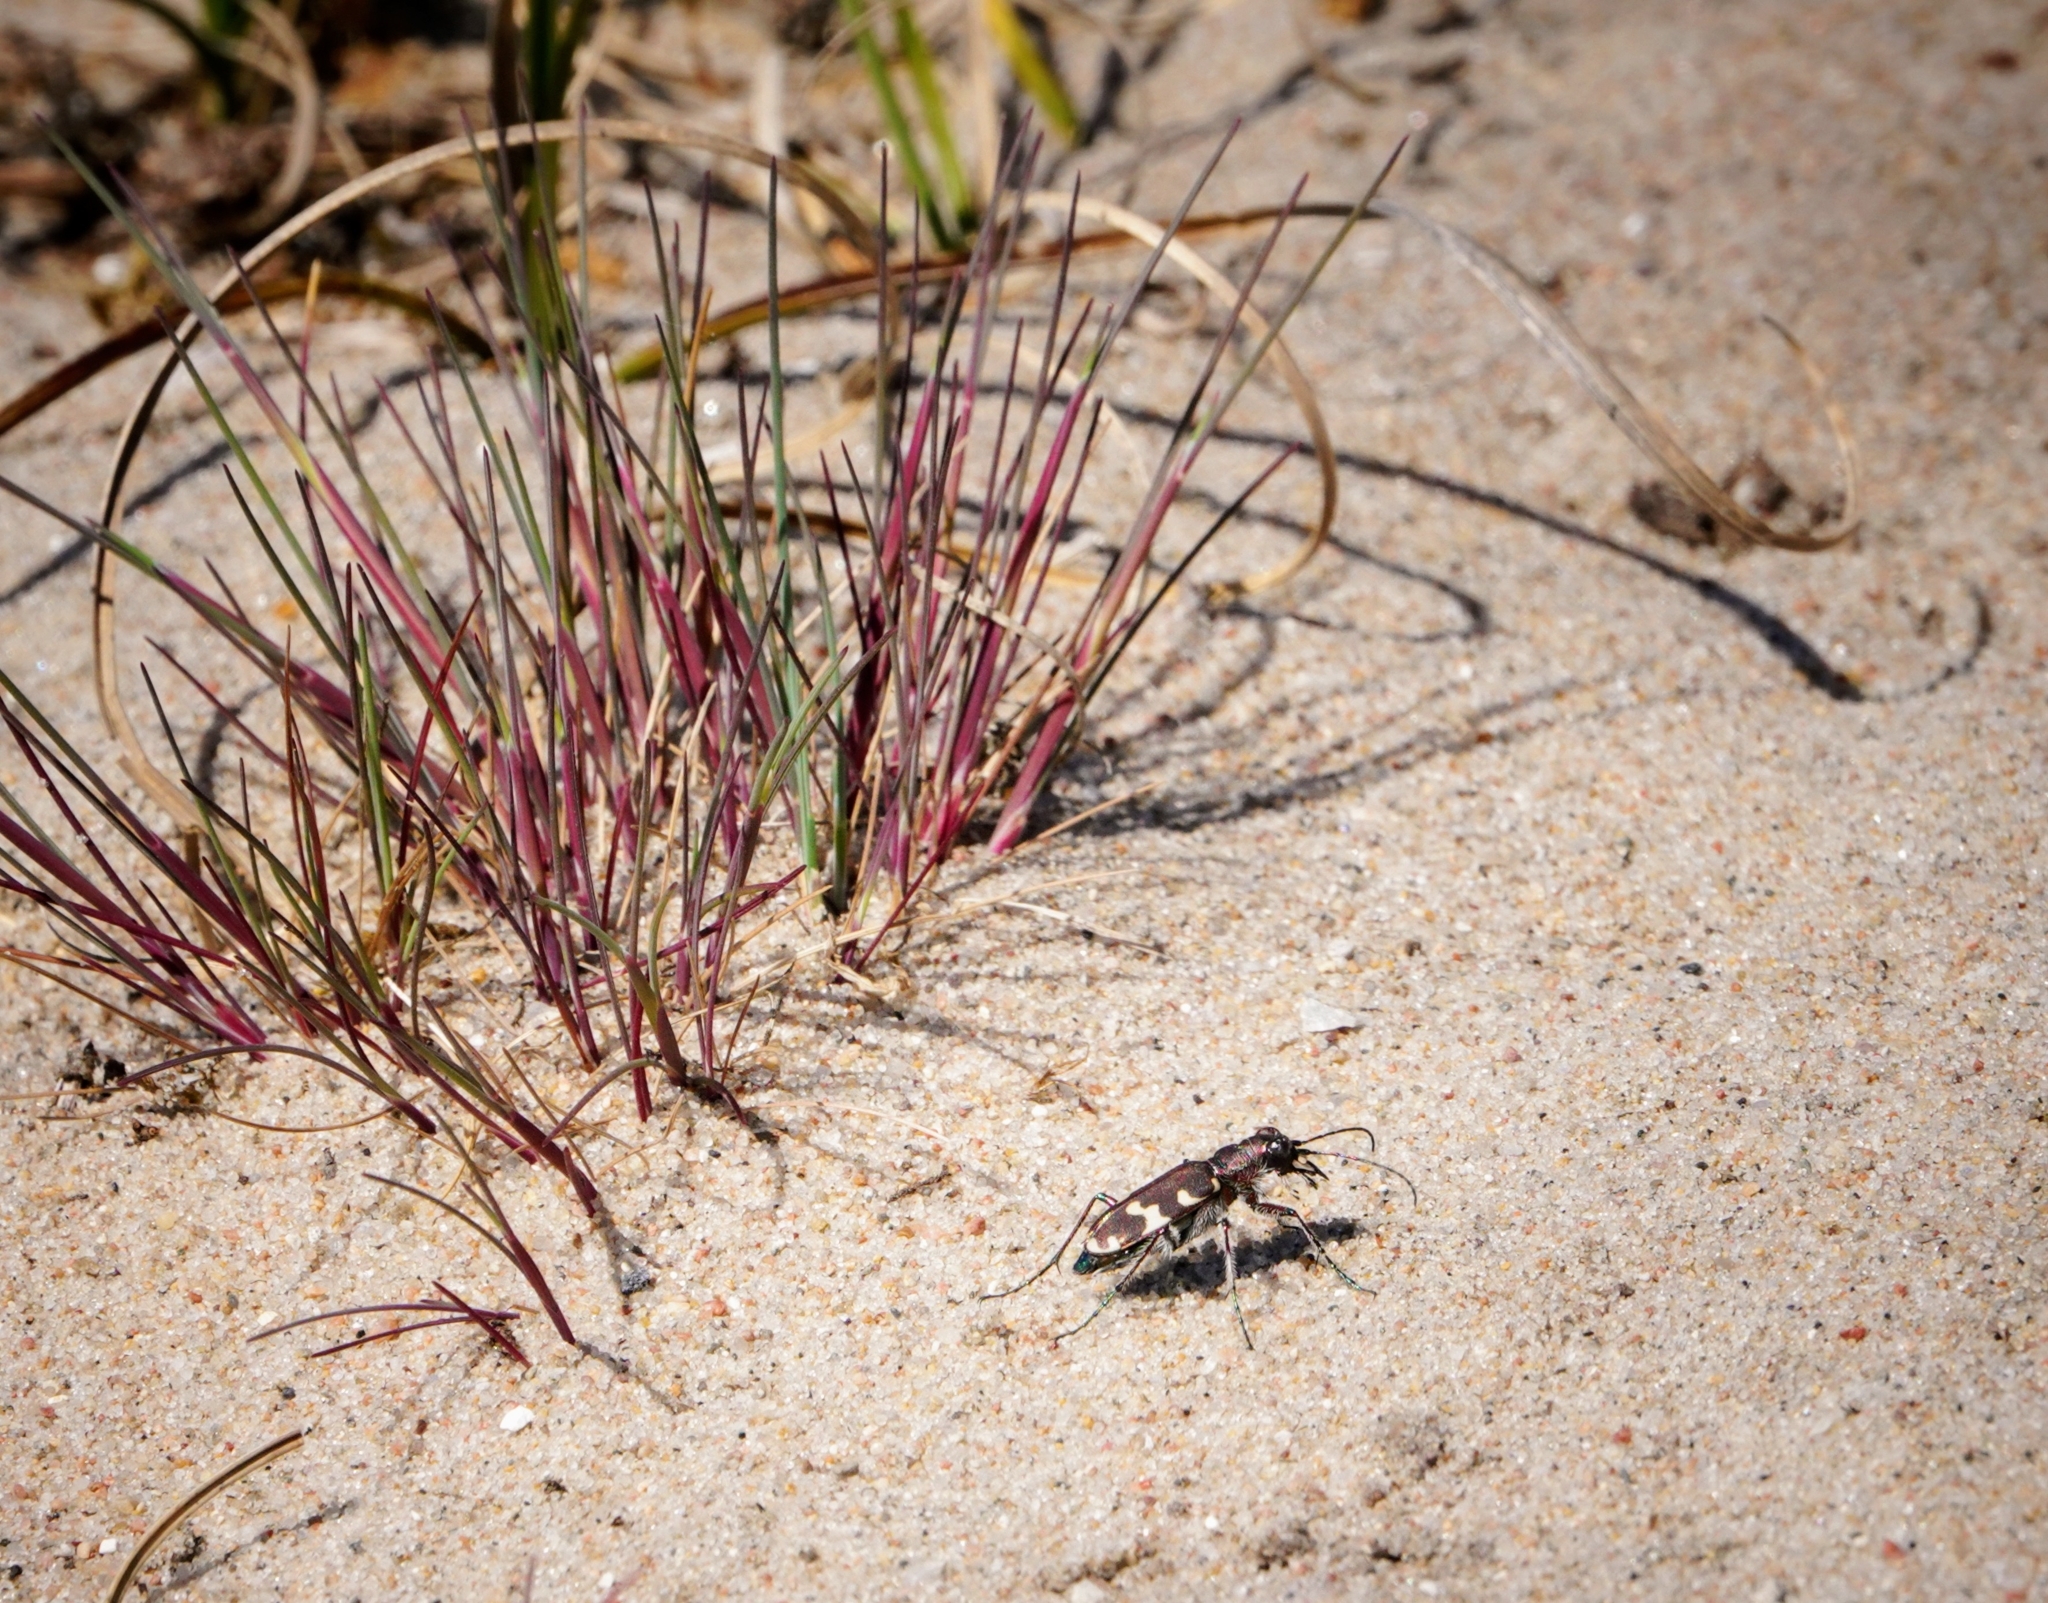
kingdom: Animalia
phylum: Arthropoda
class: Insecta
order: Coleoptera
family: Carabidae
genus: Cicindela
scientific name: Cicindela hybrida
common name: Northern dune tiger beetle
